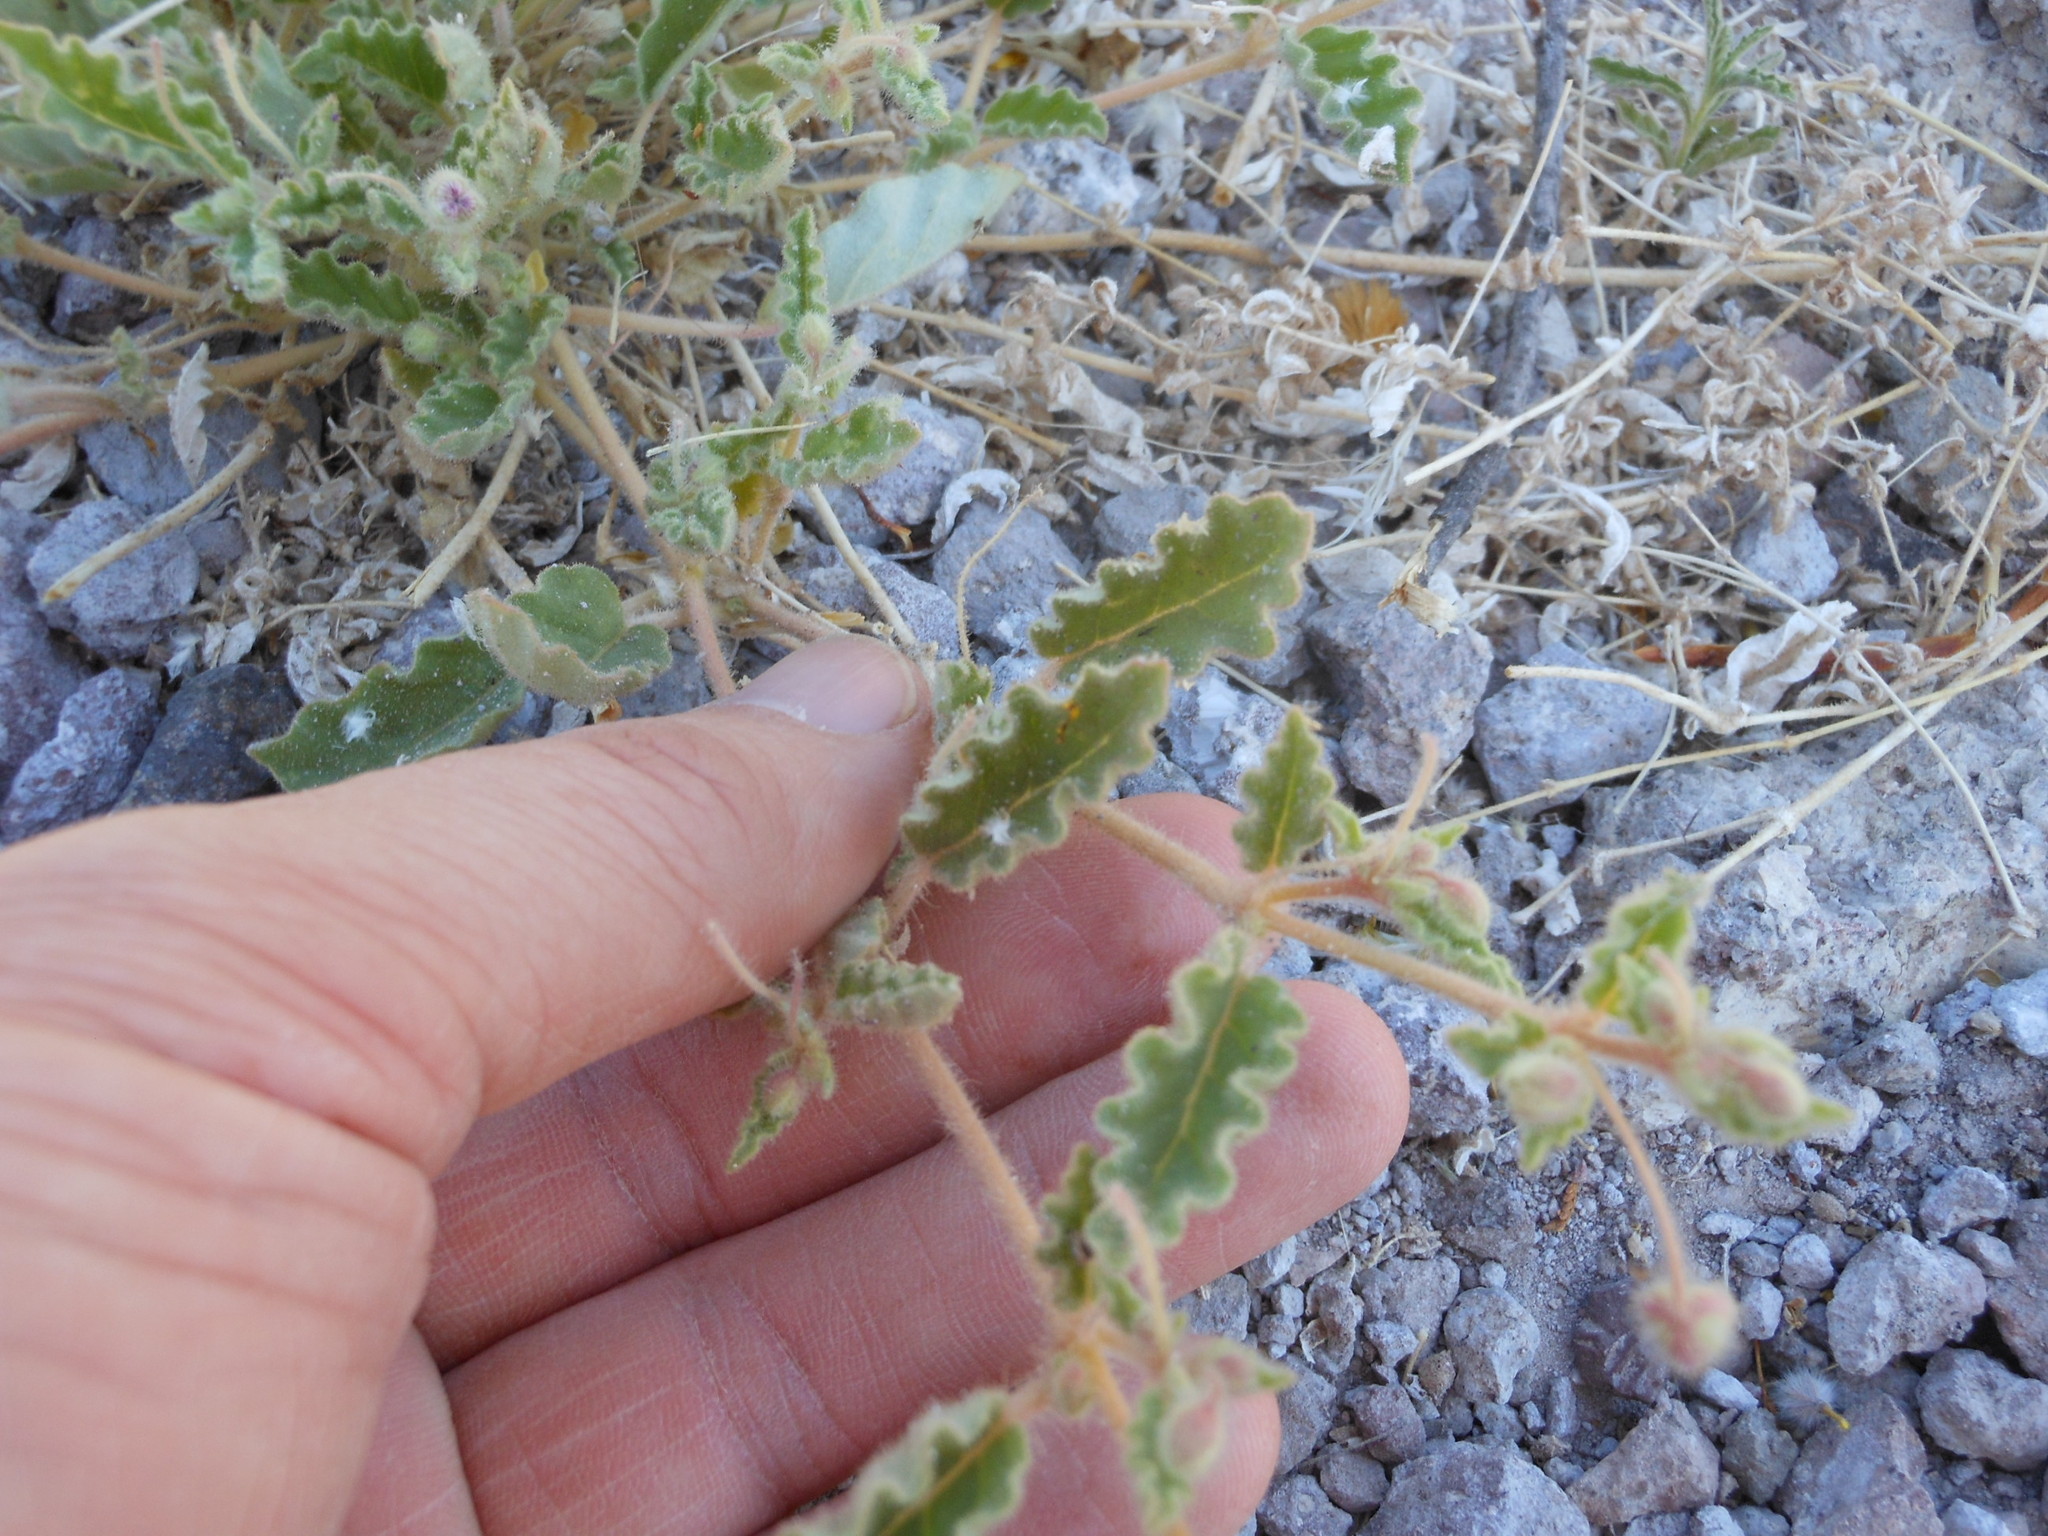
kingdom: Plantae
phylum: Tracheophyta
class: Magnoliopsida
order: Caryophyllales
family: Nyctaginaceae
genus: Allionia
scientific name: Allionia incarnata
